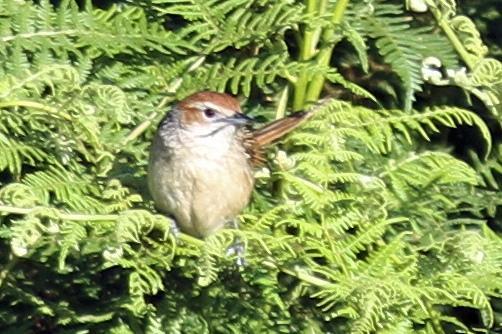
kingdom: Animalia
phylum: Chordata
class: Aves
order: Passeriformes
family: Macrosphenidae
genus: Sphenoeacus
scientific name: Sphenoeacus afer
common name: Cape grassbird
